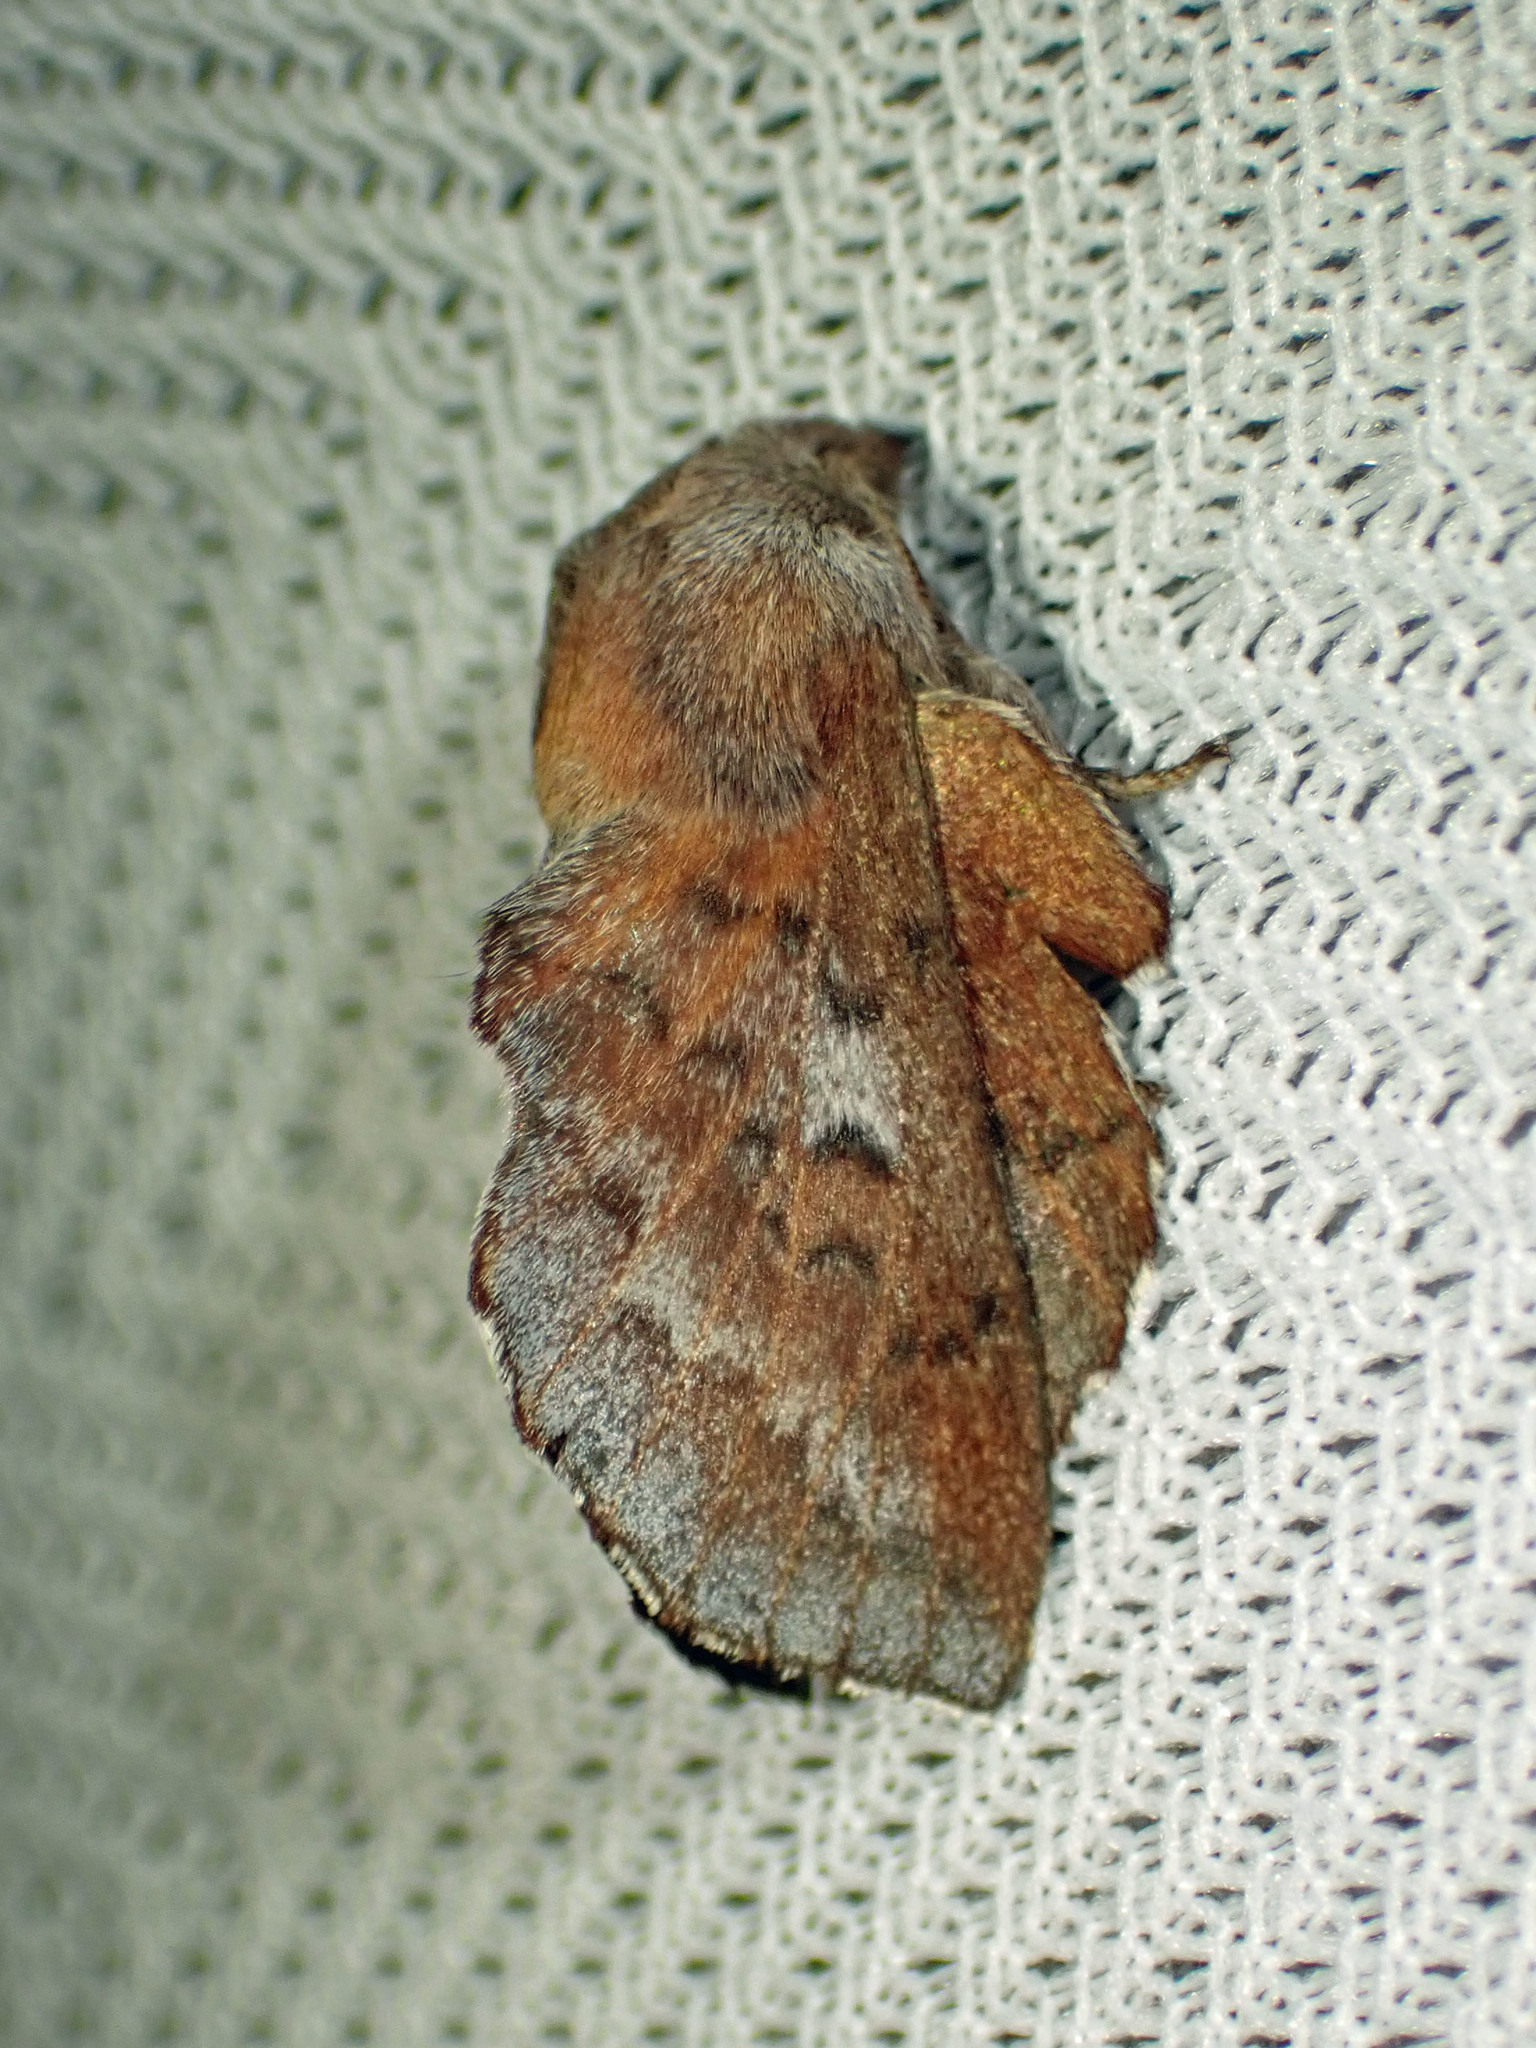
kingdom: Animalia
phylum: Arthropoda
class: Insecta
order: Lepidoptera
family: Lasiocampidae
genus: Phyllodesma
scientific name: Phyllodesma americana
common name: American lappet moth
